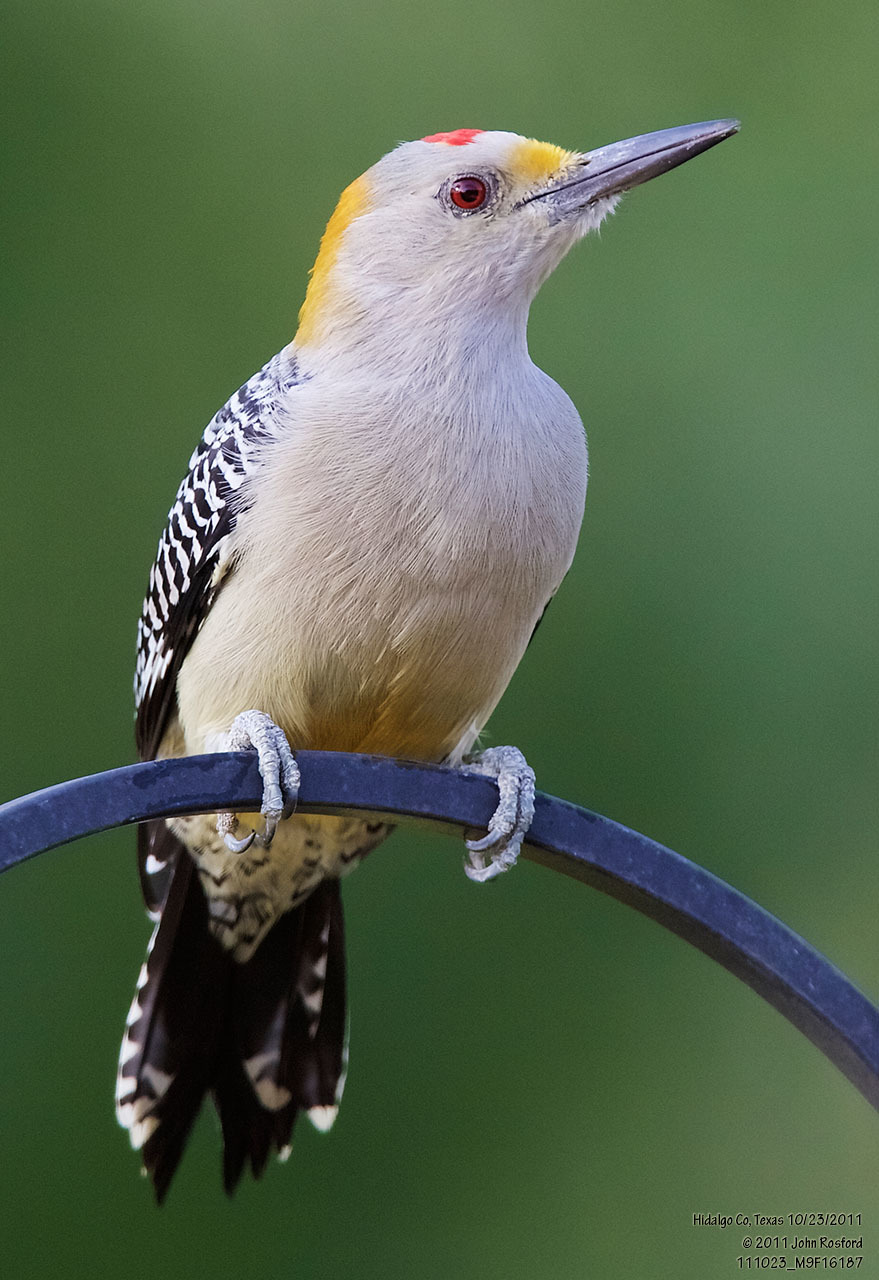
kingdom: Animalia
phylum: Chordata
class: Aves
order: Piciformes
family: Picidae
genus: Melanerpes
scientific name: Melanerpes aurifrons
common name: Golden-fronted woodpecker
